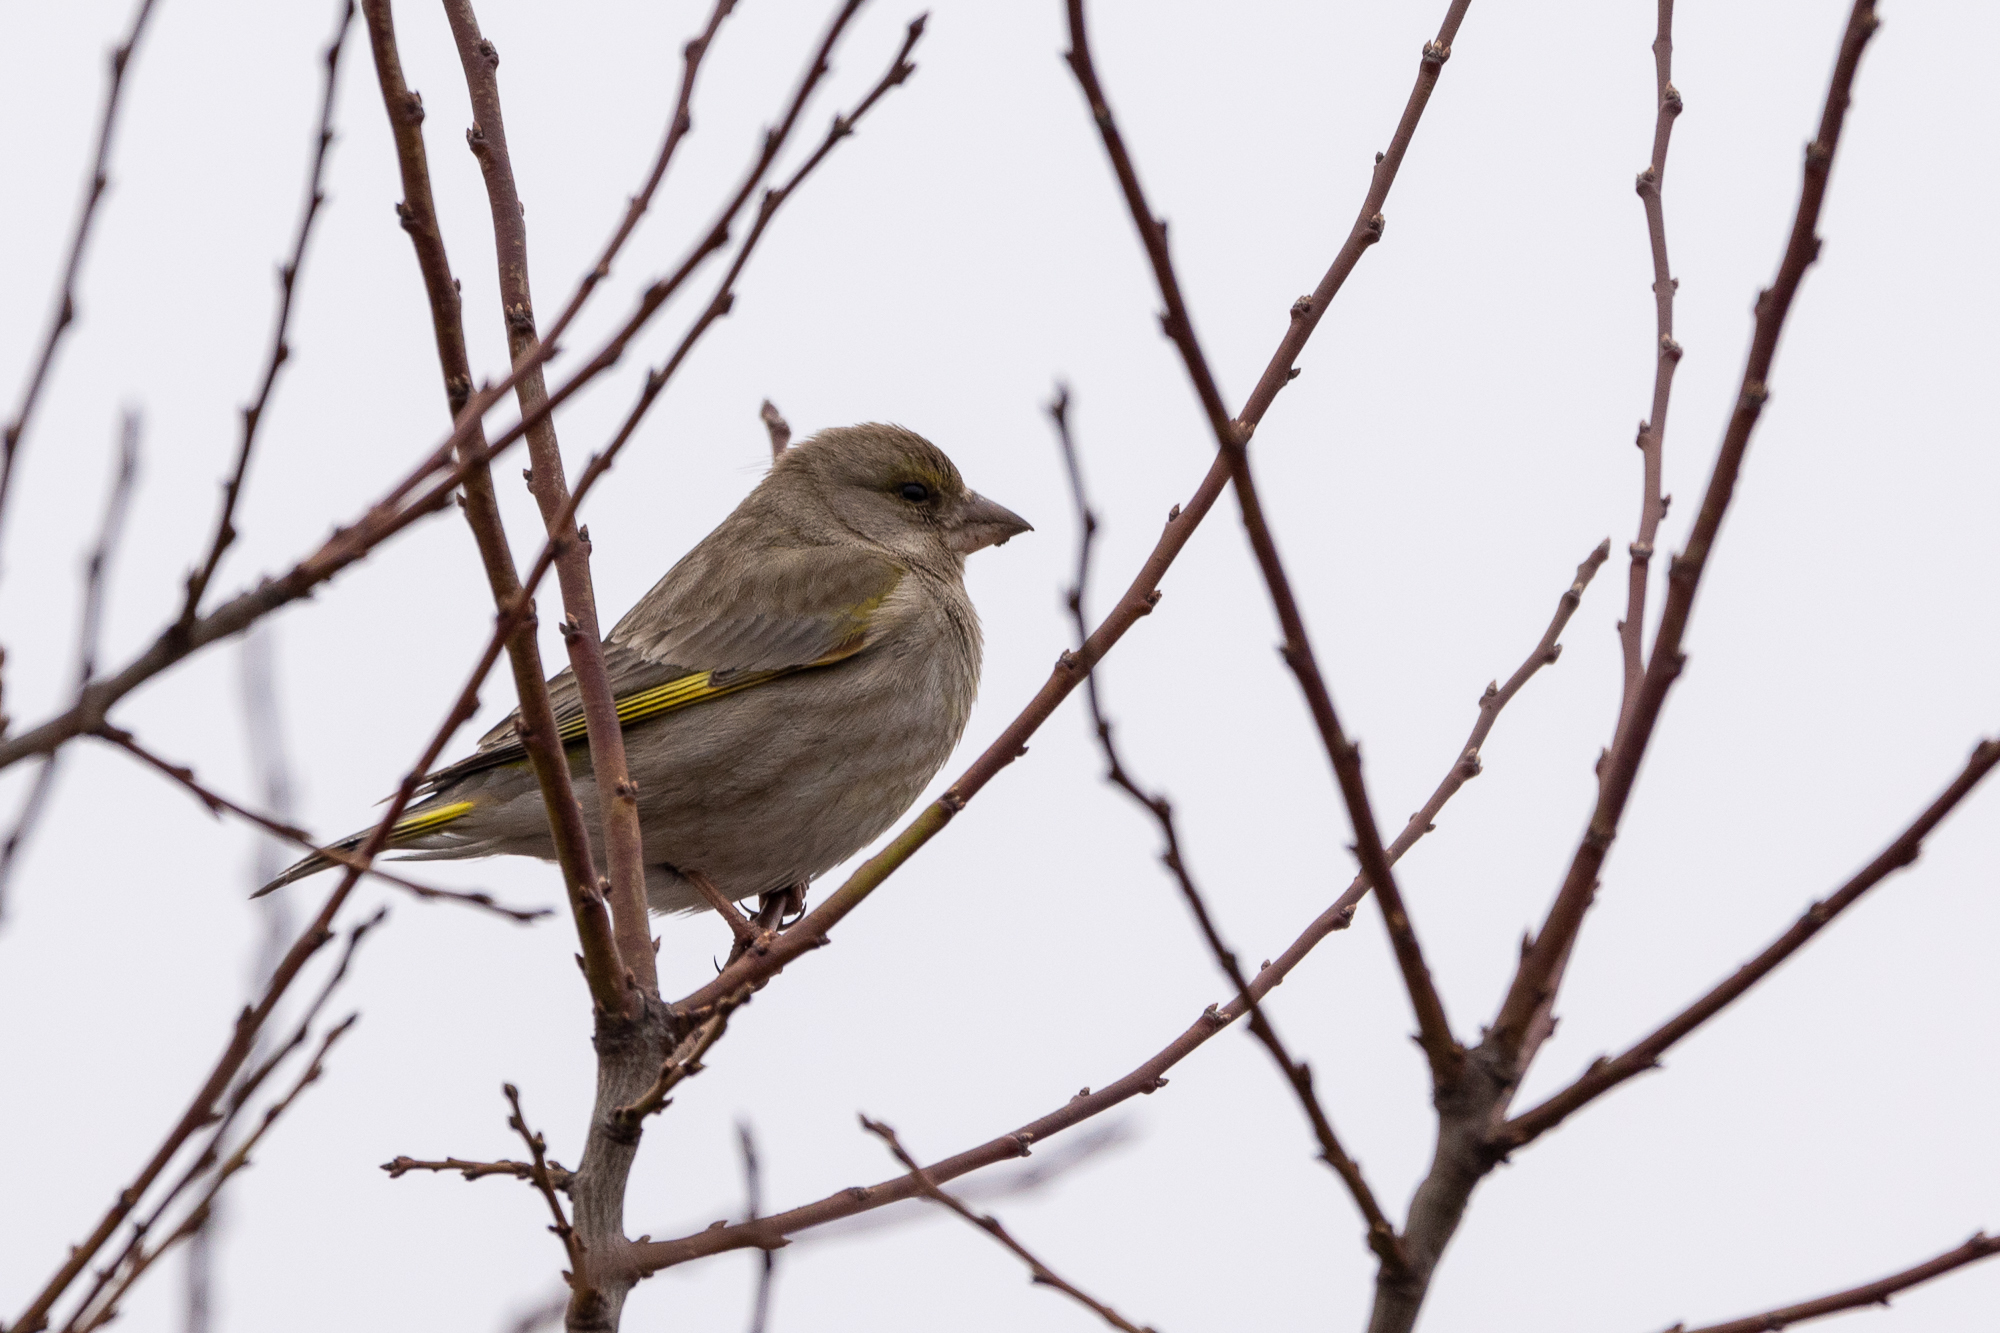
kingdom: Plantae
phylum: Tracheophyta
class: Liliopsida
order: Poales
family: Poaceae
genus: Chloris
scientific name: Chloris chloris
